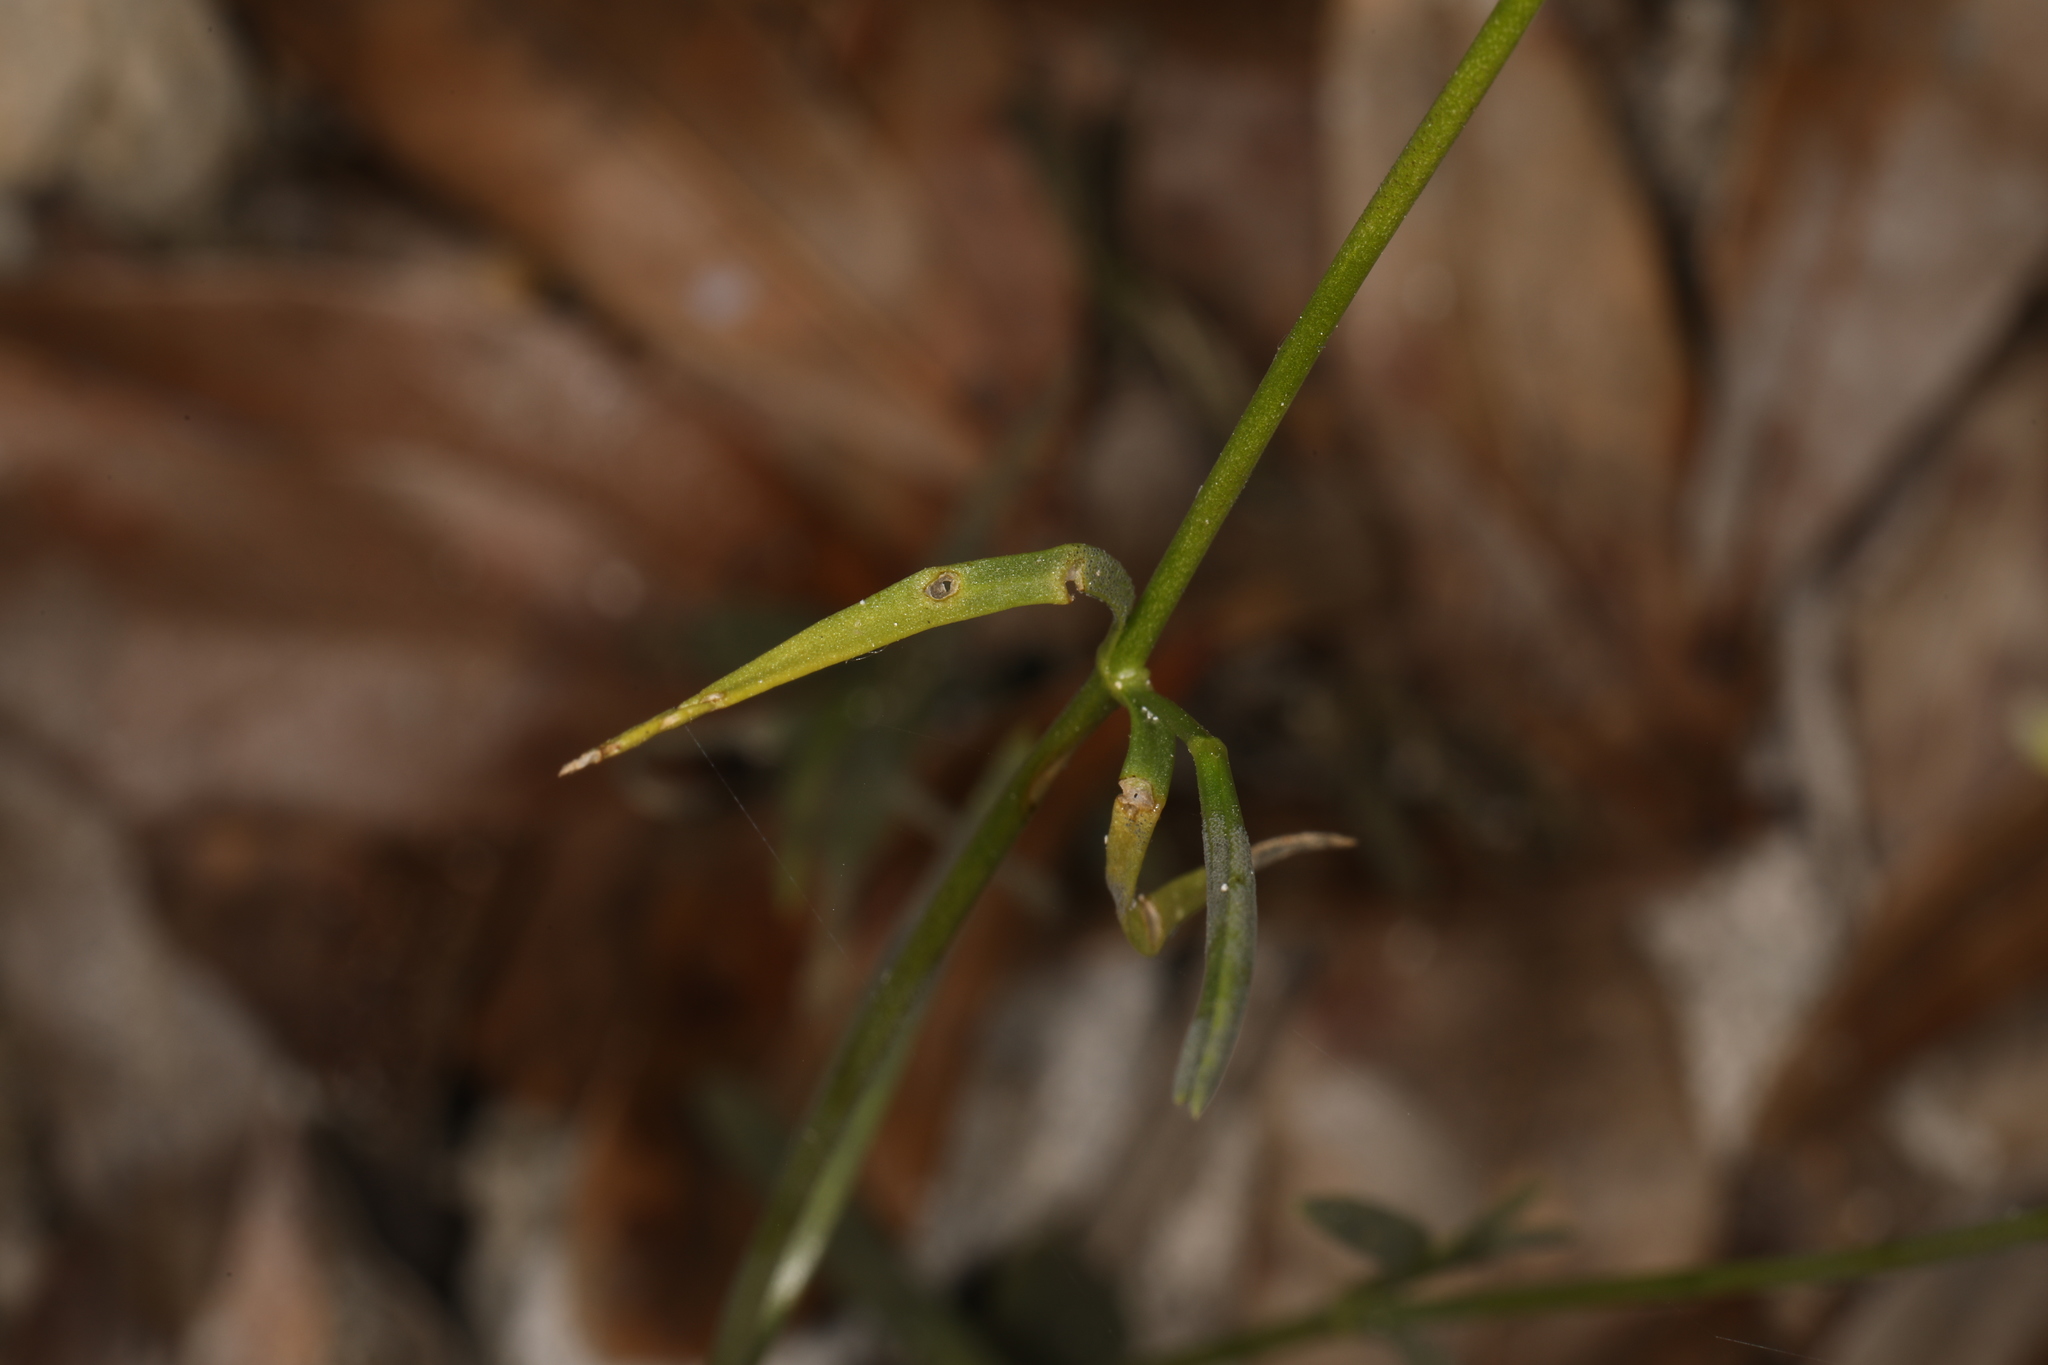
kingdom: Plantae
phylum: Tracheophyta
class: Magnoliopsida
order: Gentianales
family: Gentianaceae
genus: Sabatia
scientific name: Sabatia stellaris
